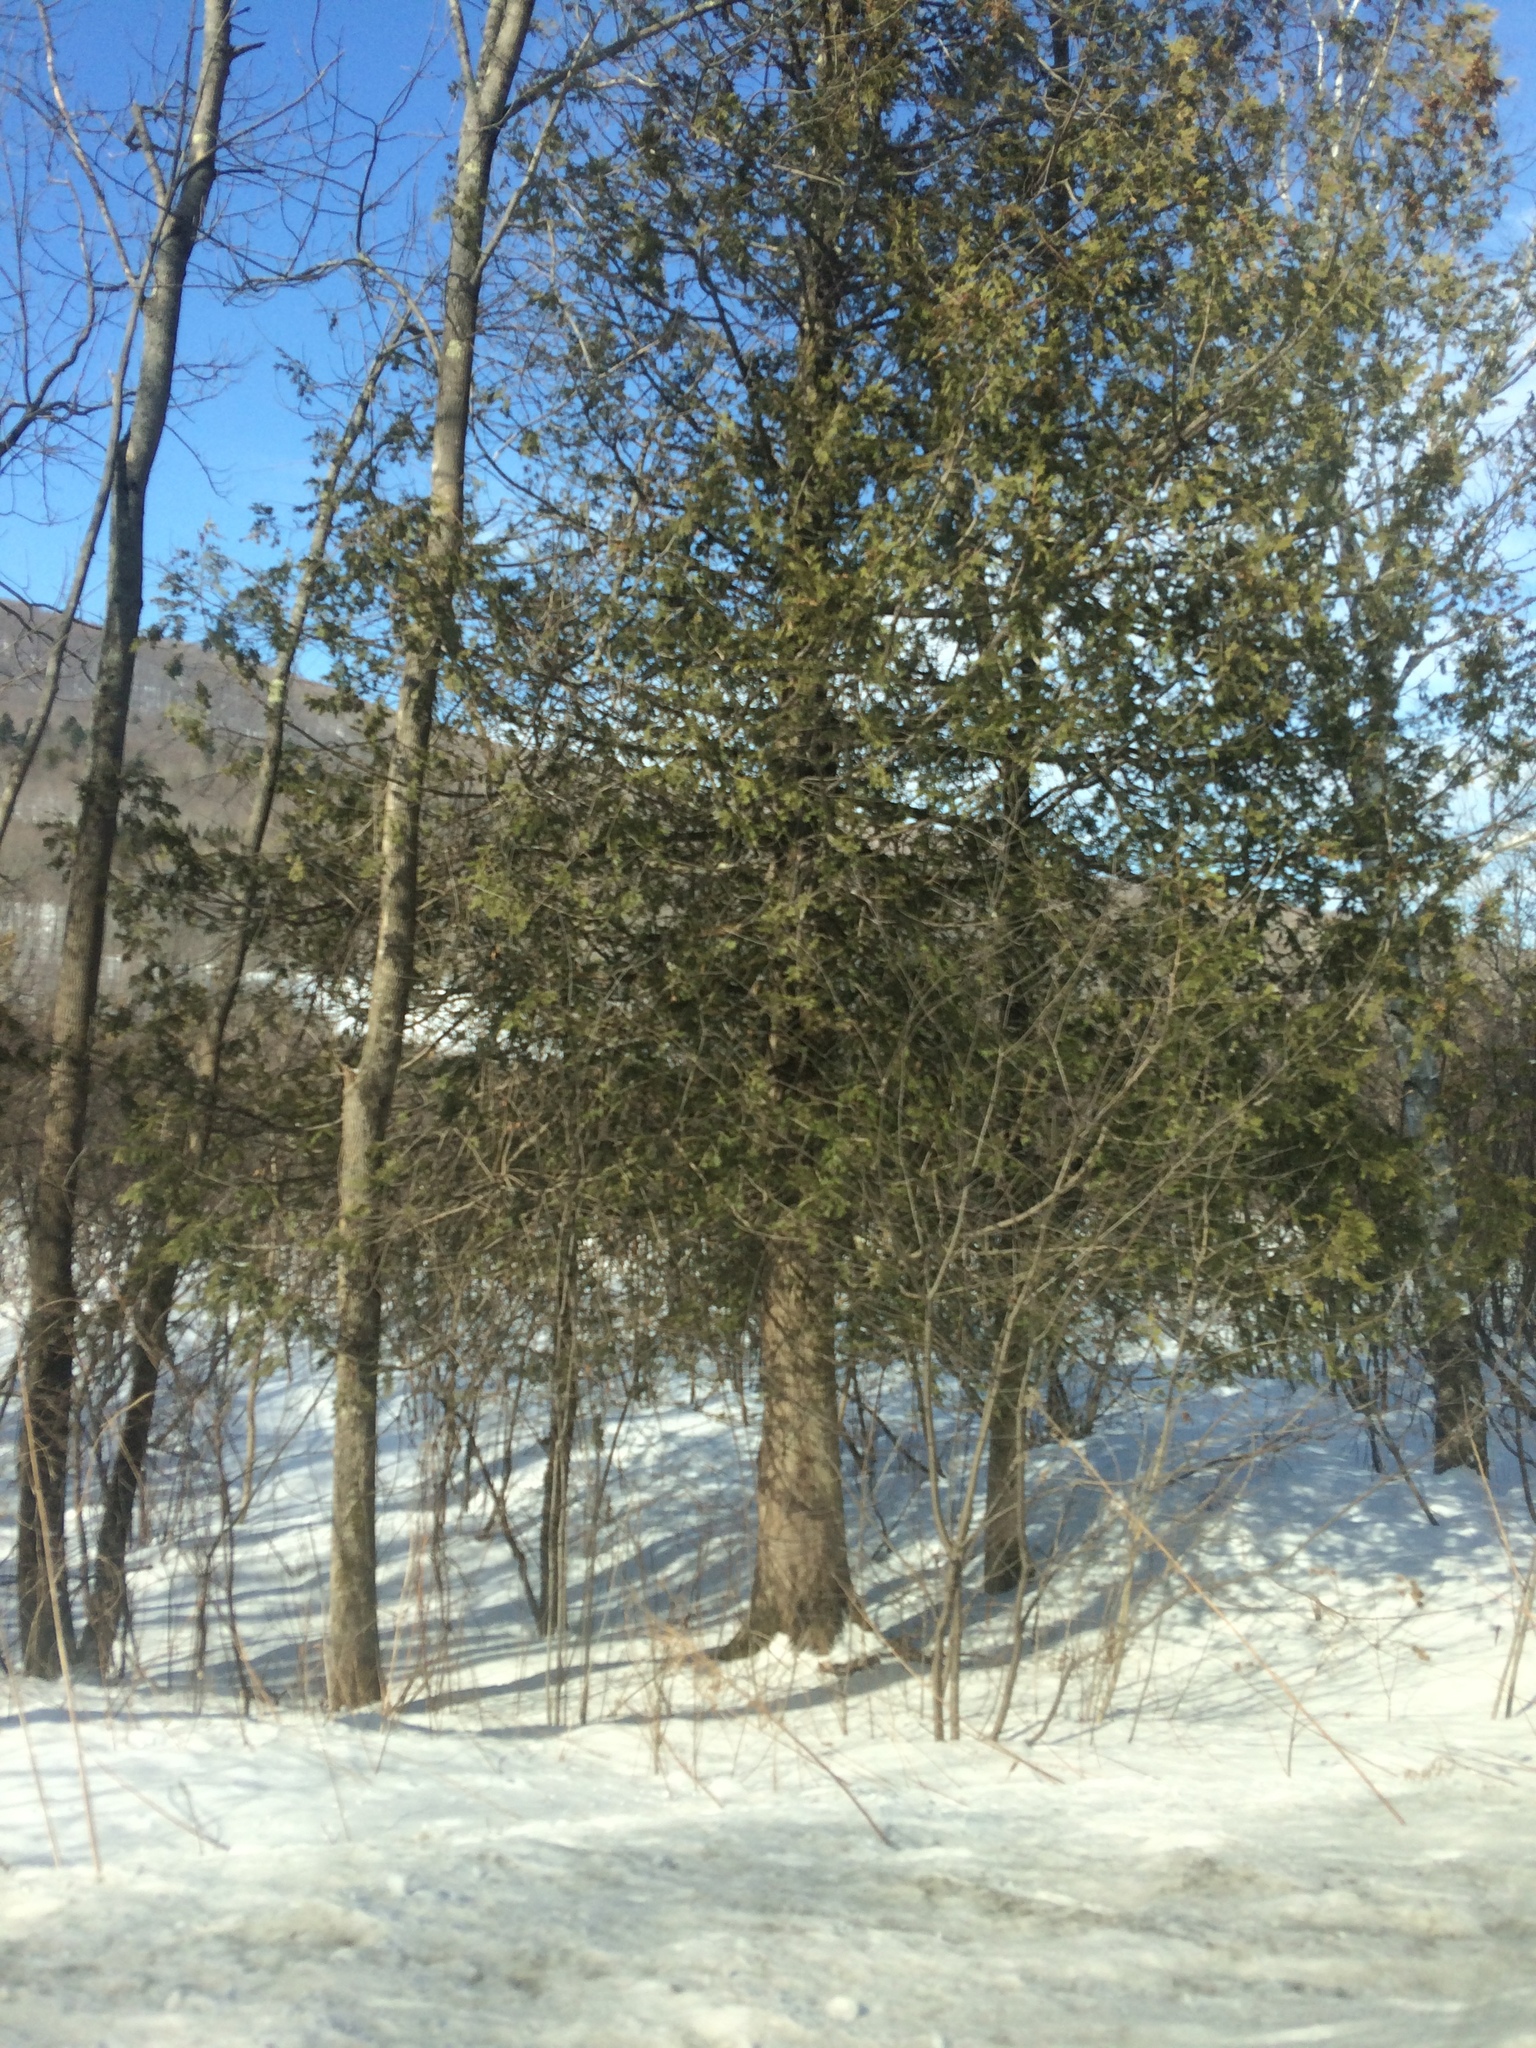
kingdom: Plantae
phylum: Tracheophyta
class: Pinopsida
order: Pinales
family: Cupressaceae
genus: Thuja
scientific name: Thuja occidentalis
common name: Northern white-cedar
